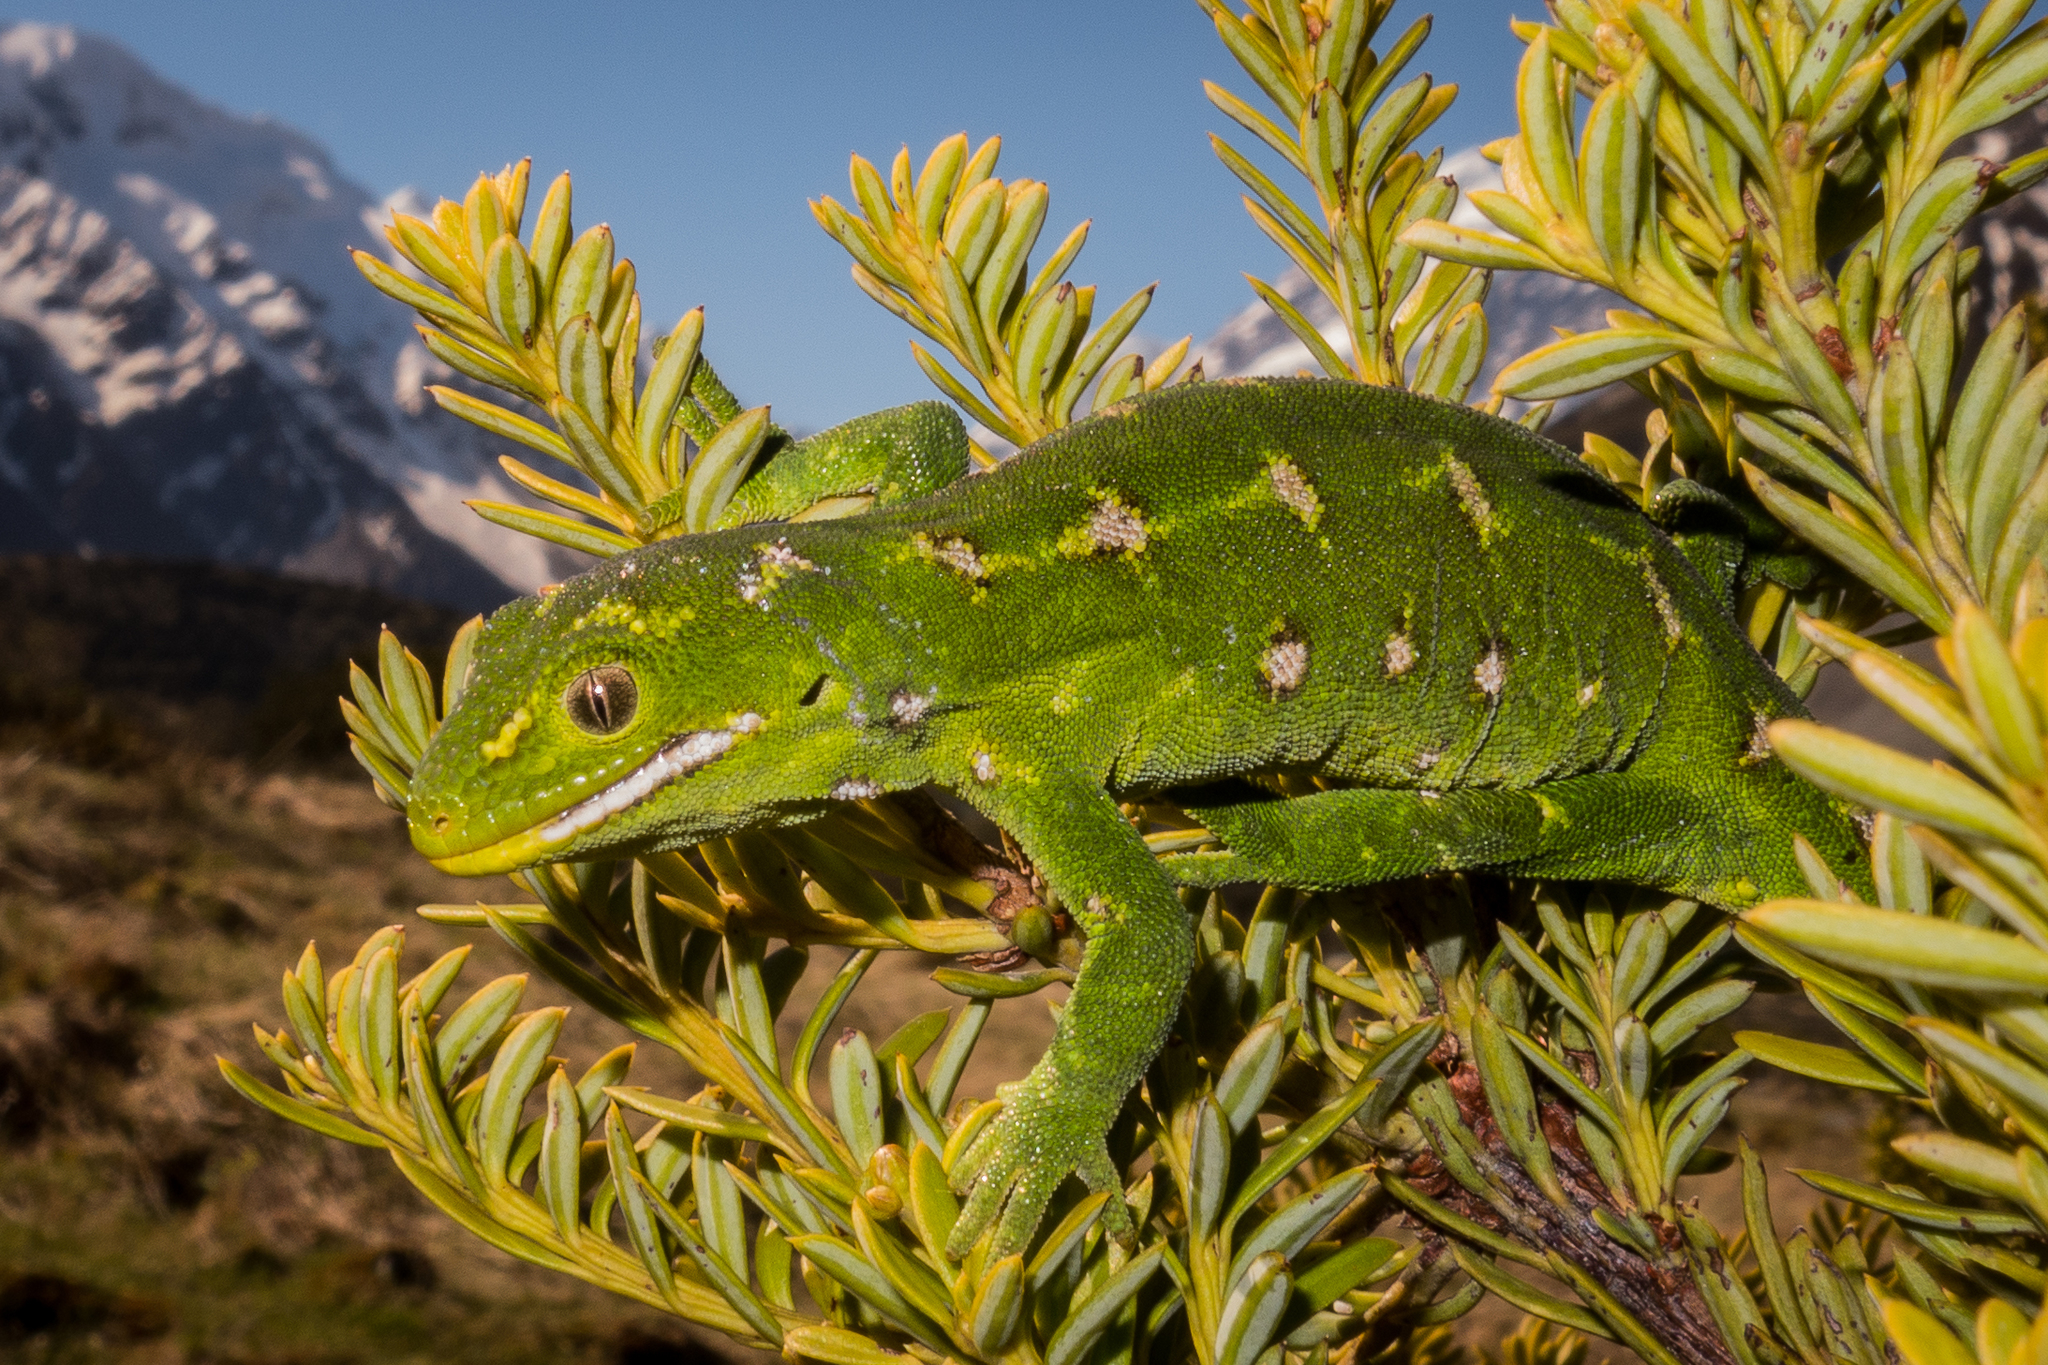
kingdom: Animalia
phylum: Chordata
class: Squamata
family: Diplodactylidae
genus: Naultinus
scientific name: Naultinus gemmeus
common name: Jewelled gecko
